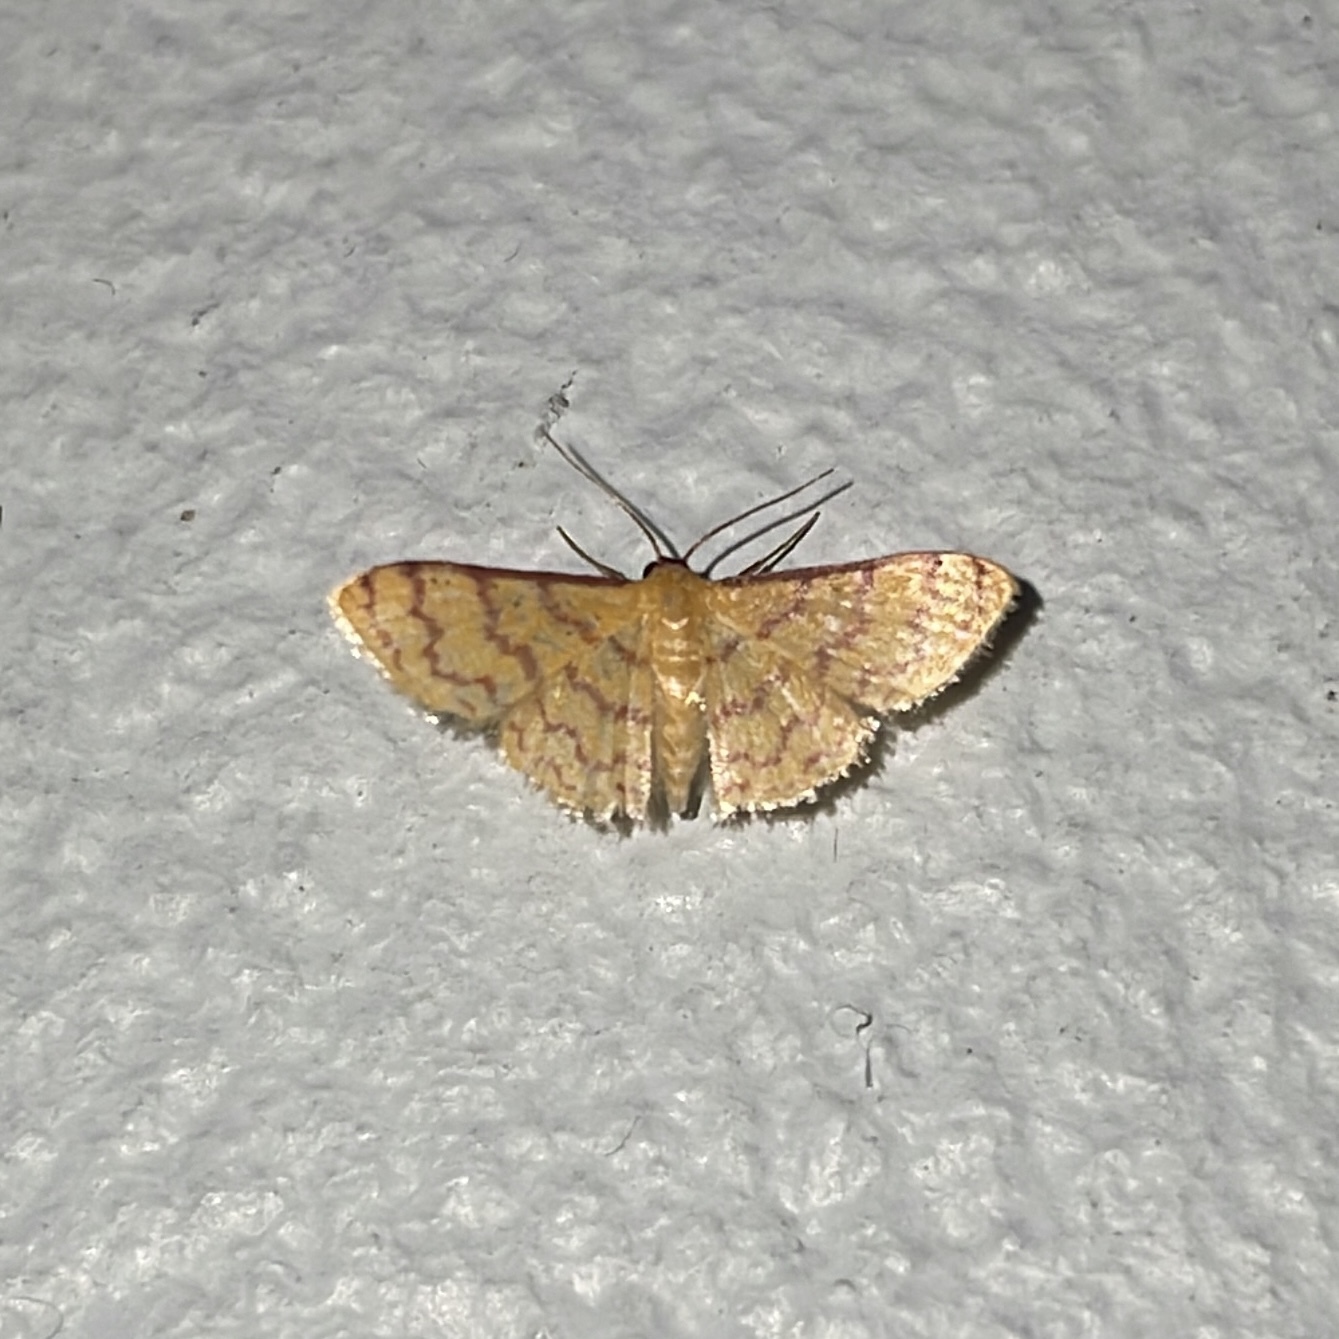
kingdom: Animalia
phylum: Arthropoda
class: Insecta
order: Lepidoptera
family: Geometridae
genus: Tricentrogyna
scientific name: Tricentrogyna deportata
